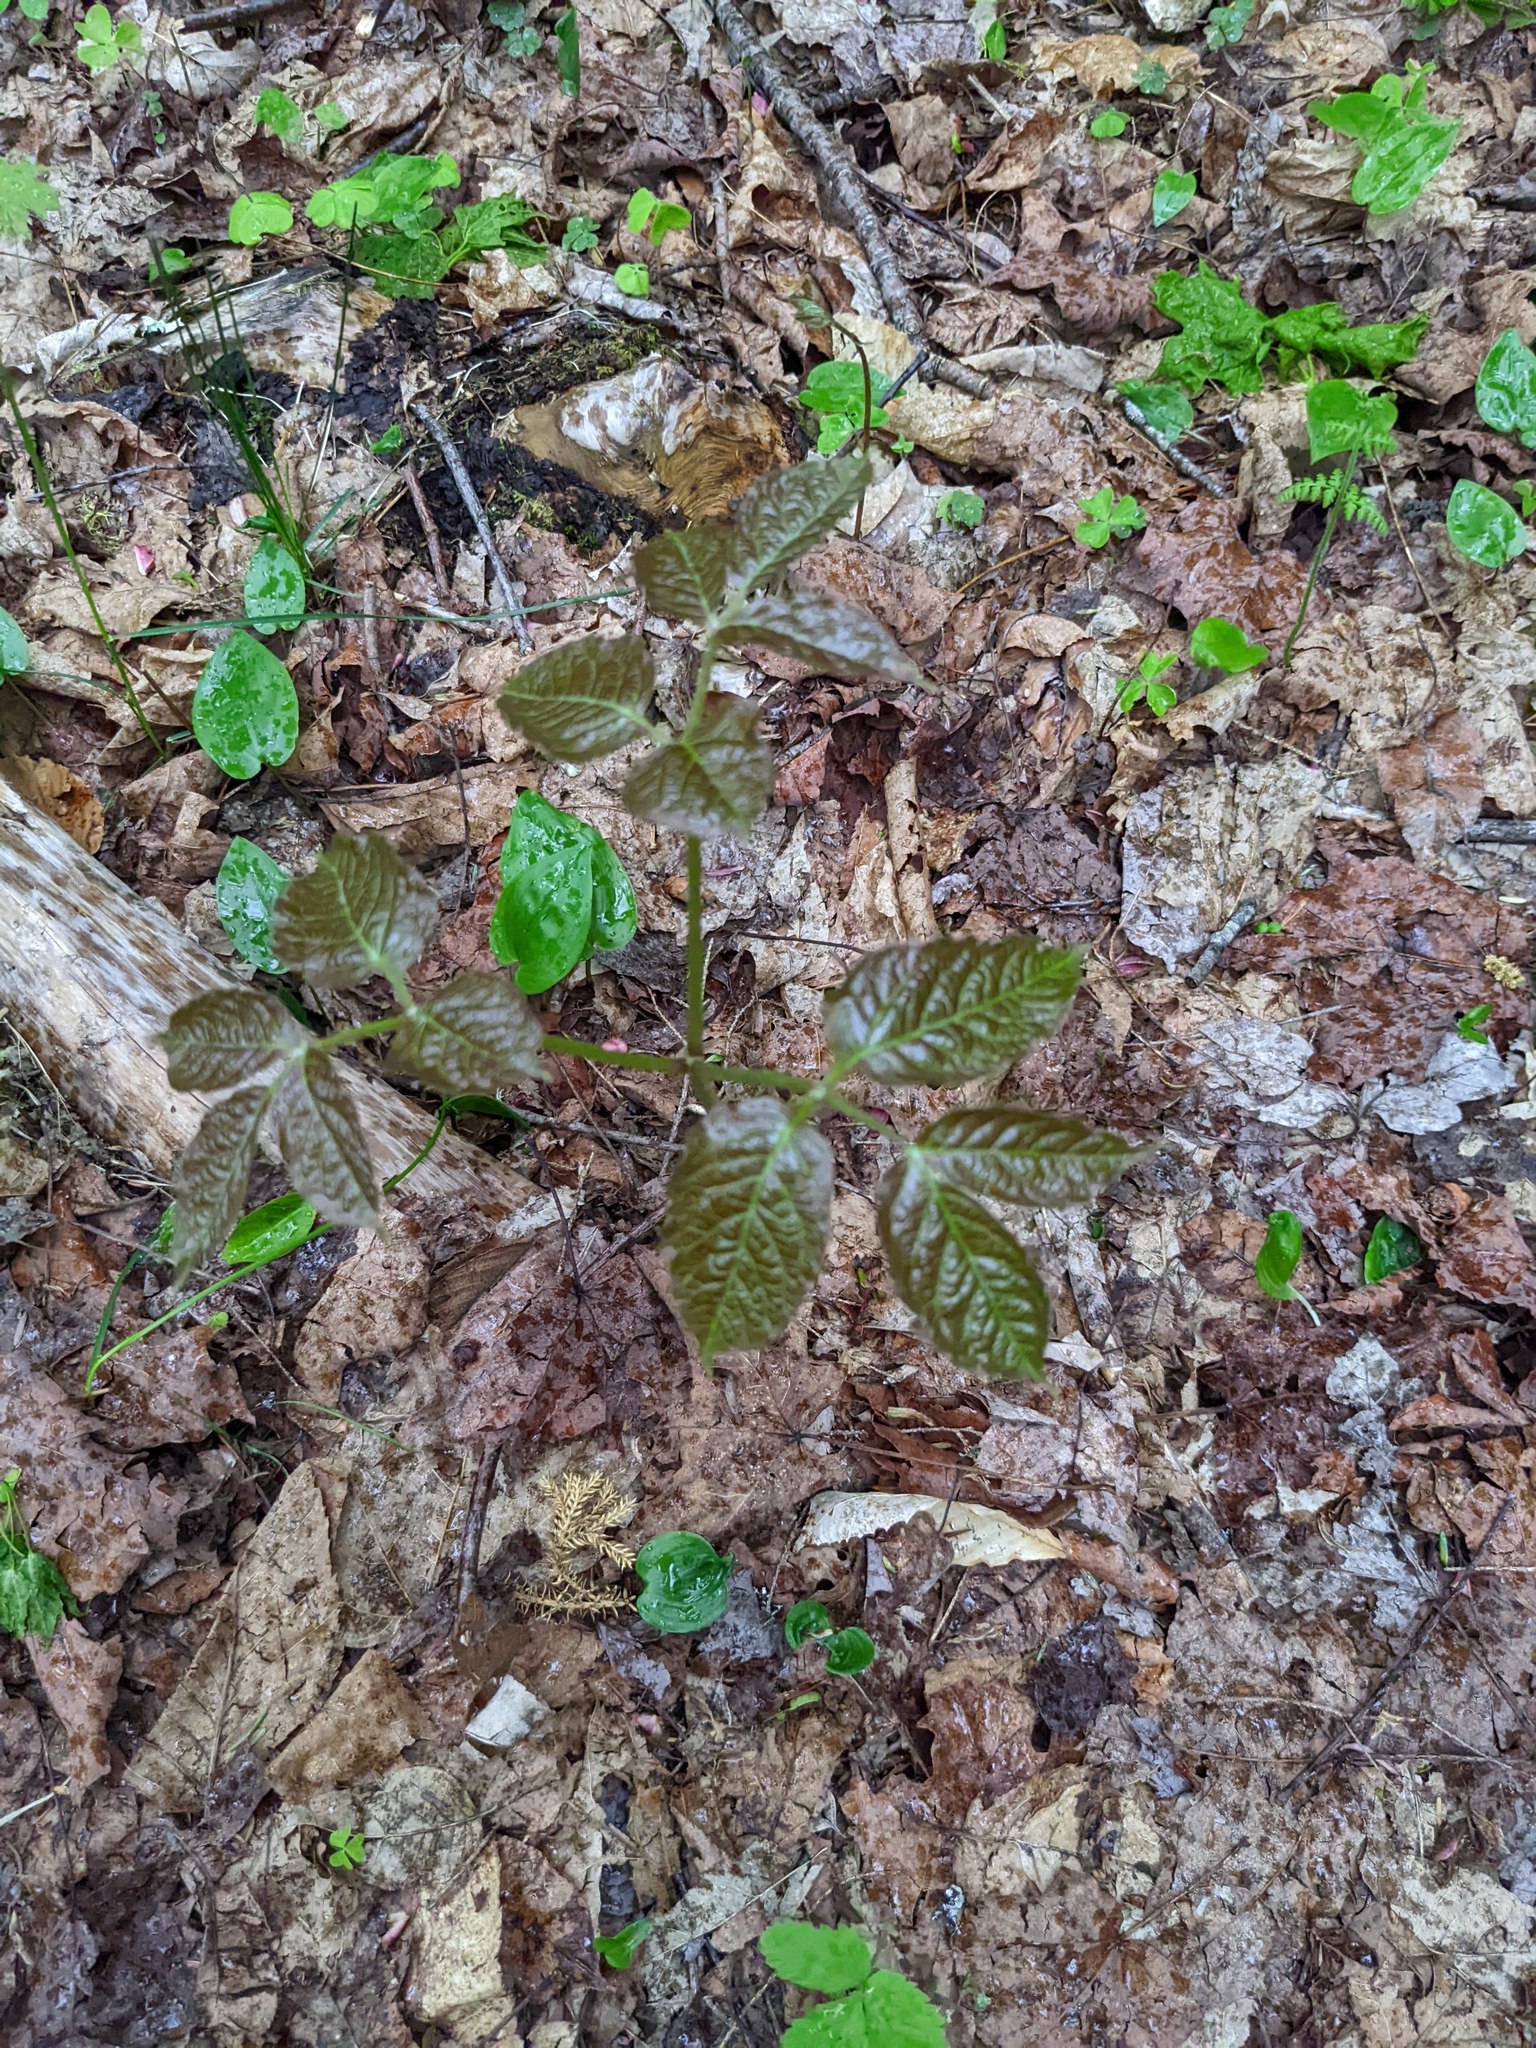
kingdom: Plantae
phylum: Tracheophyta
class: Magnoliopsida
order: Apiales
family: Araliaceae
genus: Aralia
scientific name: Aralia nudicaulis
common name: Wild sarsaparilla
